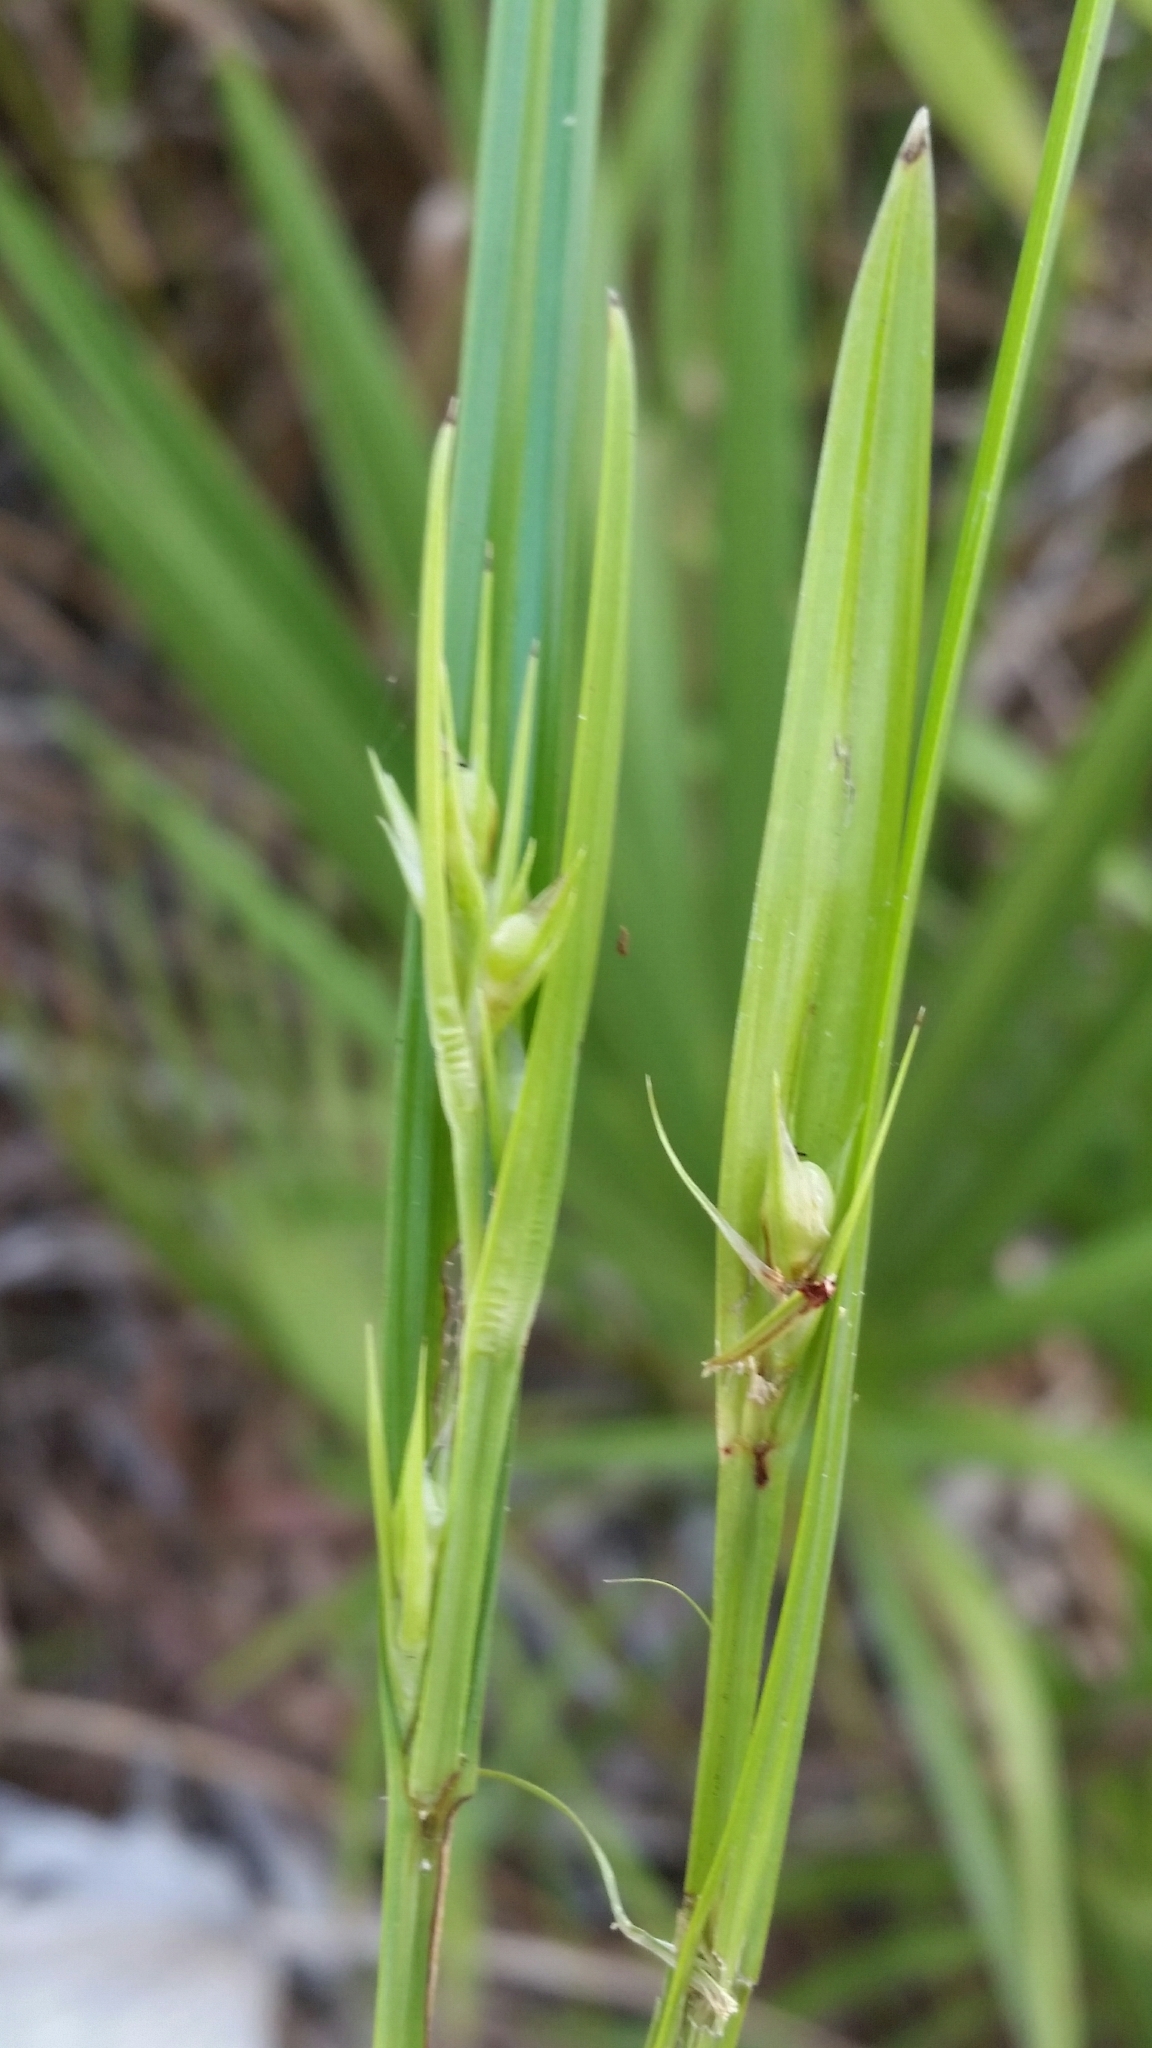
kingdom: Plantae
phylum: Tracheophyta
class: Liliopsida
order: Poales
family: Cyperaceae
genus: Scleria
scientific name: Scleria triglomerata
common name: Whip nutrush
